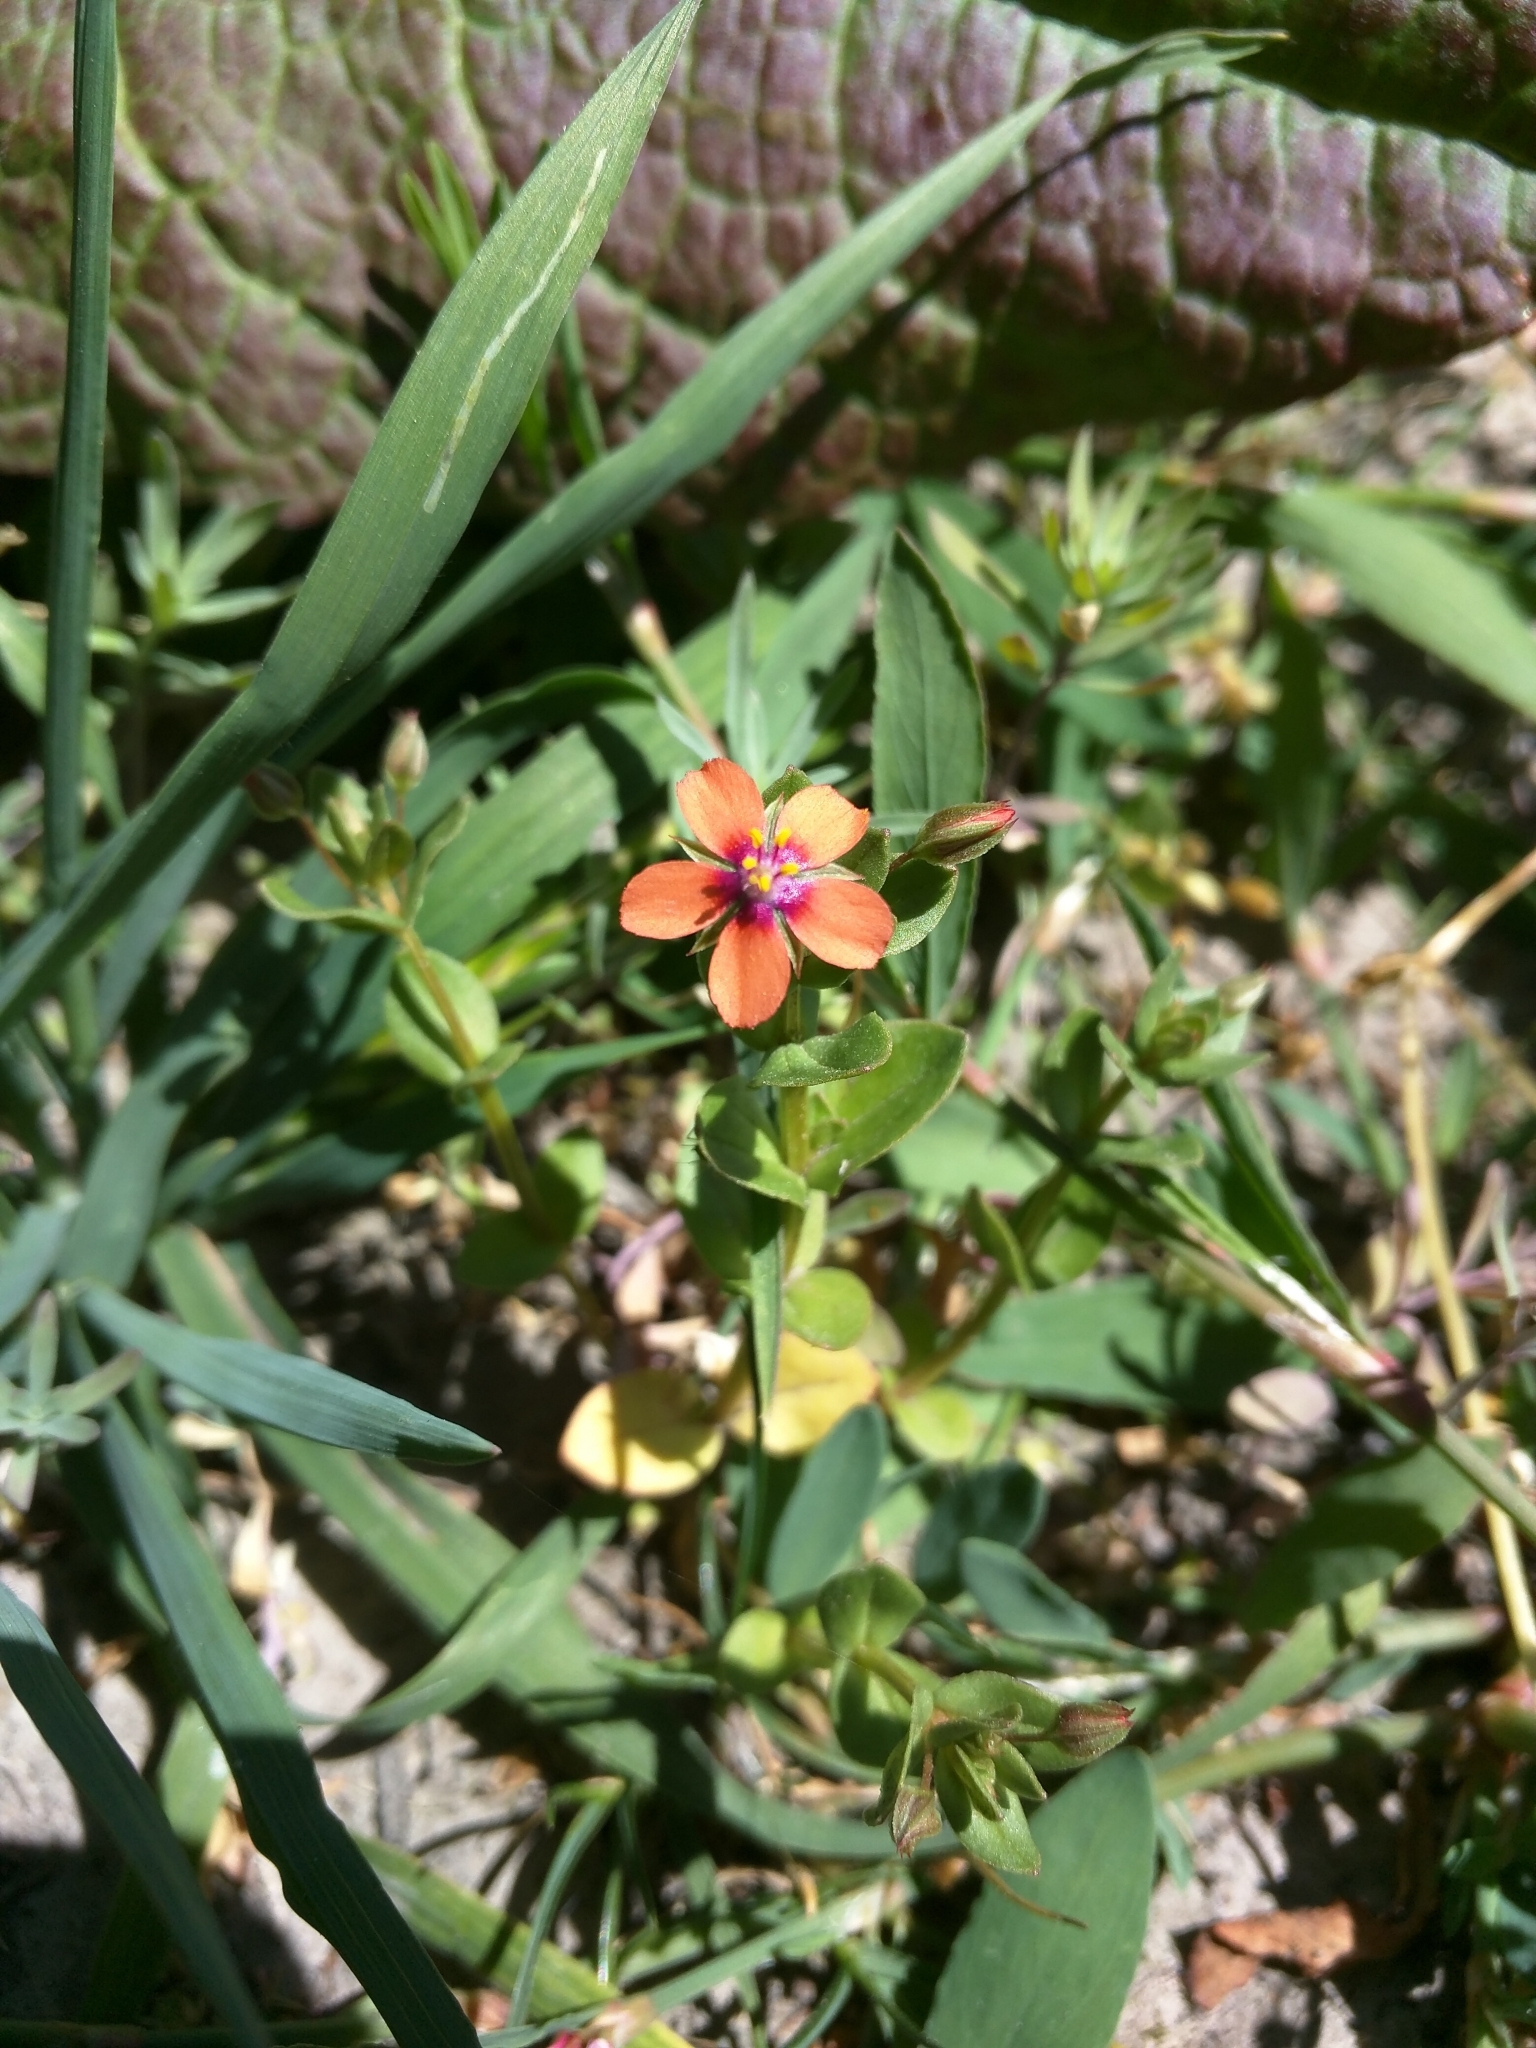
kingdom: Plantae
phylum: Tracheophyta
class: Magnoliopsida
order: Ericales
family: Primulaceae
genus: Lysimachia
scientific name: Lysimachia arvensis
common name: Scarlet pimpernel
